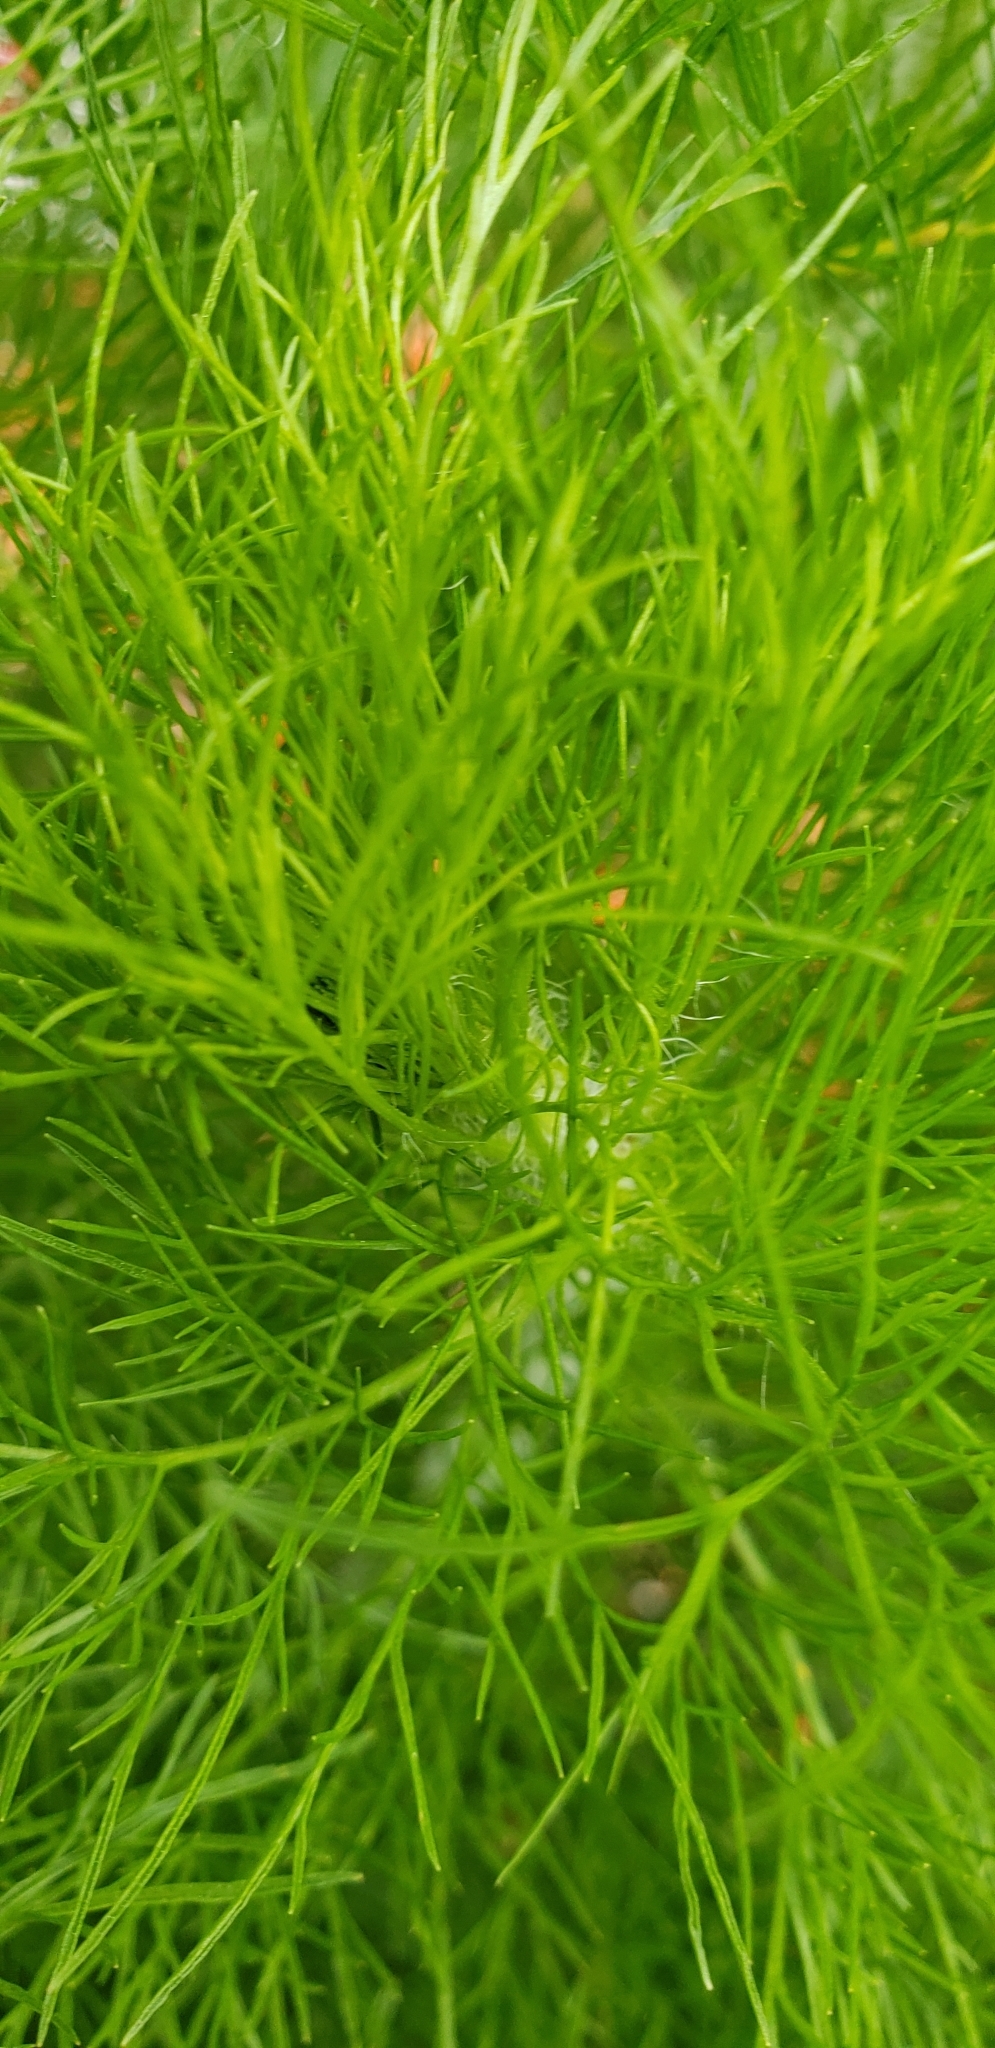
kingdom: Plantae
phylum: Tracheophyta
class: Magnoliopsida
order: Asterales
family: Asteraceae
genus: Eupatorium
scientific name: Eupatorium capillifolium
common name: Dog-fennel
